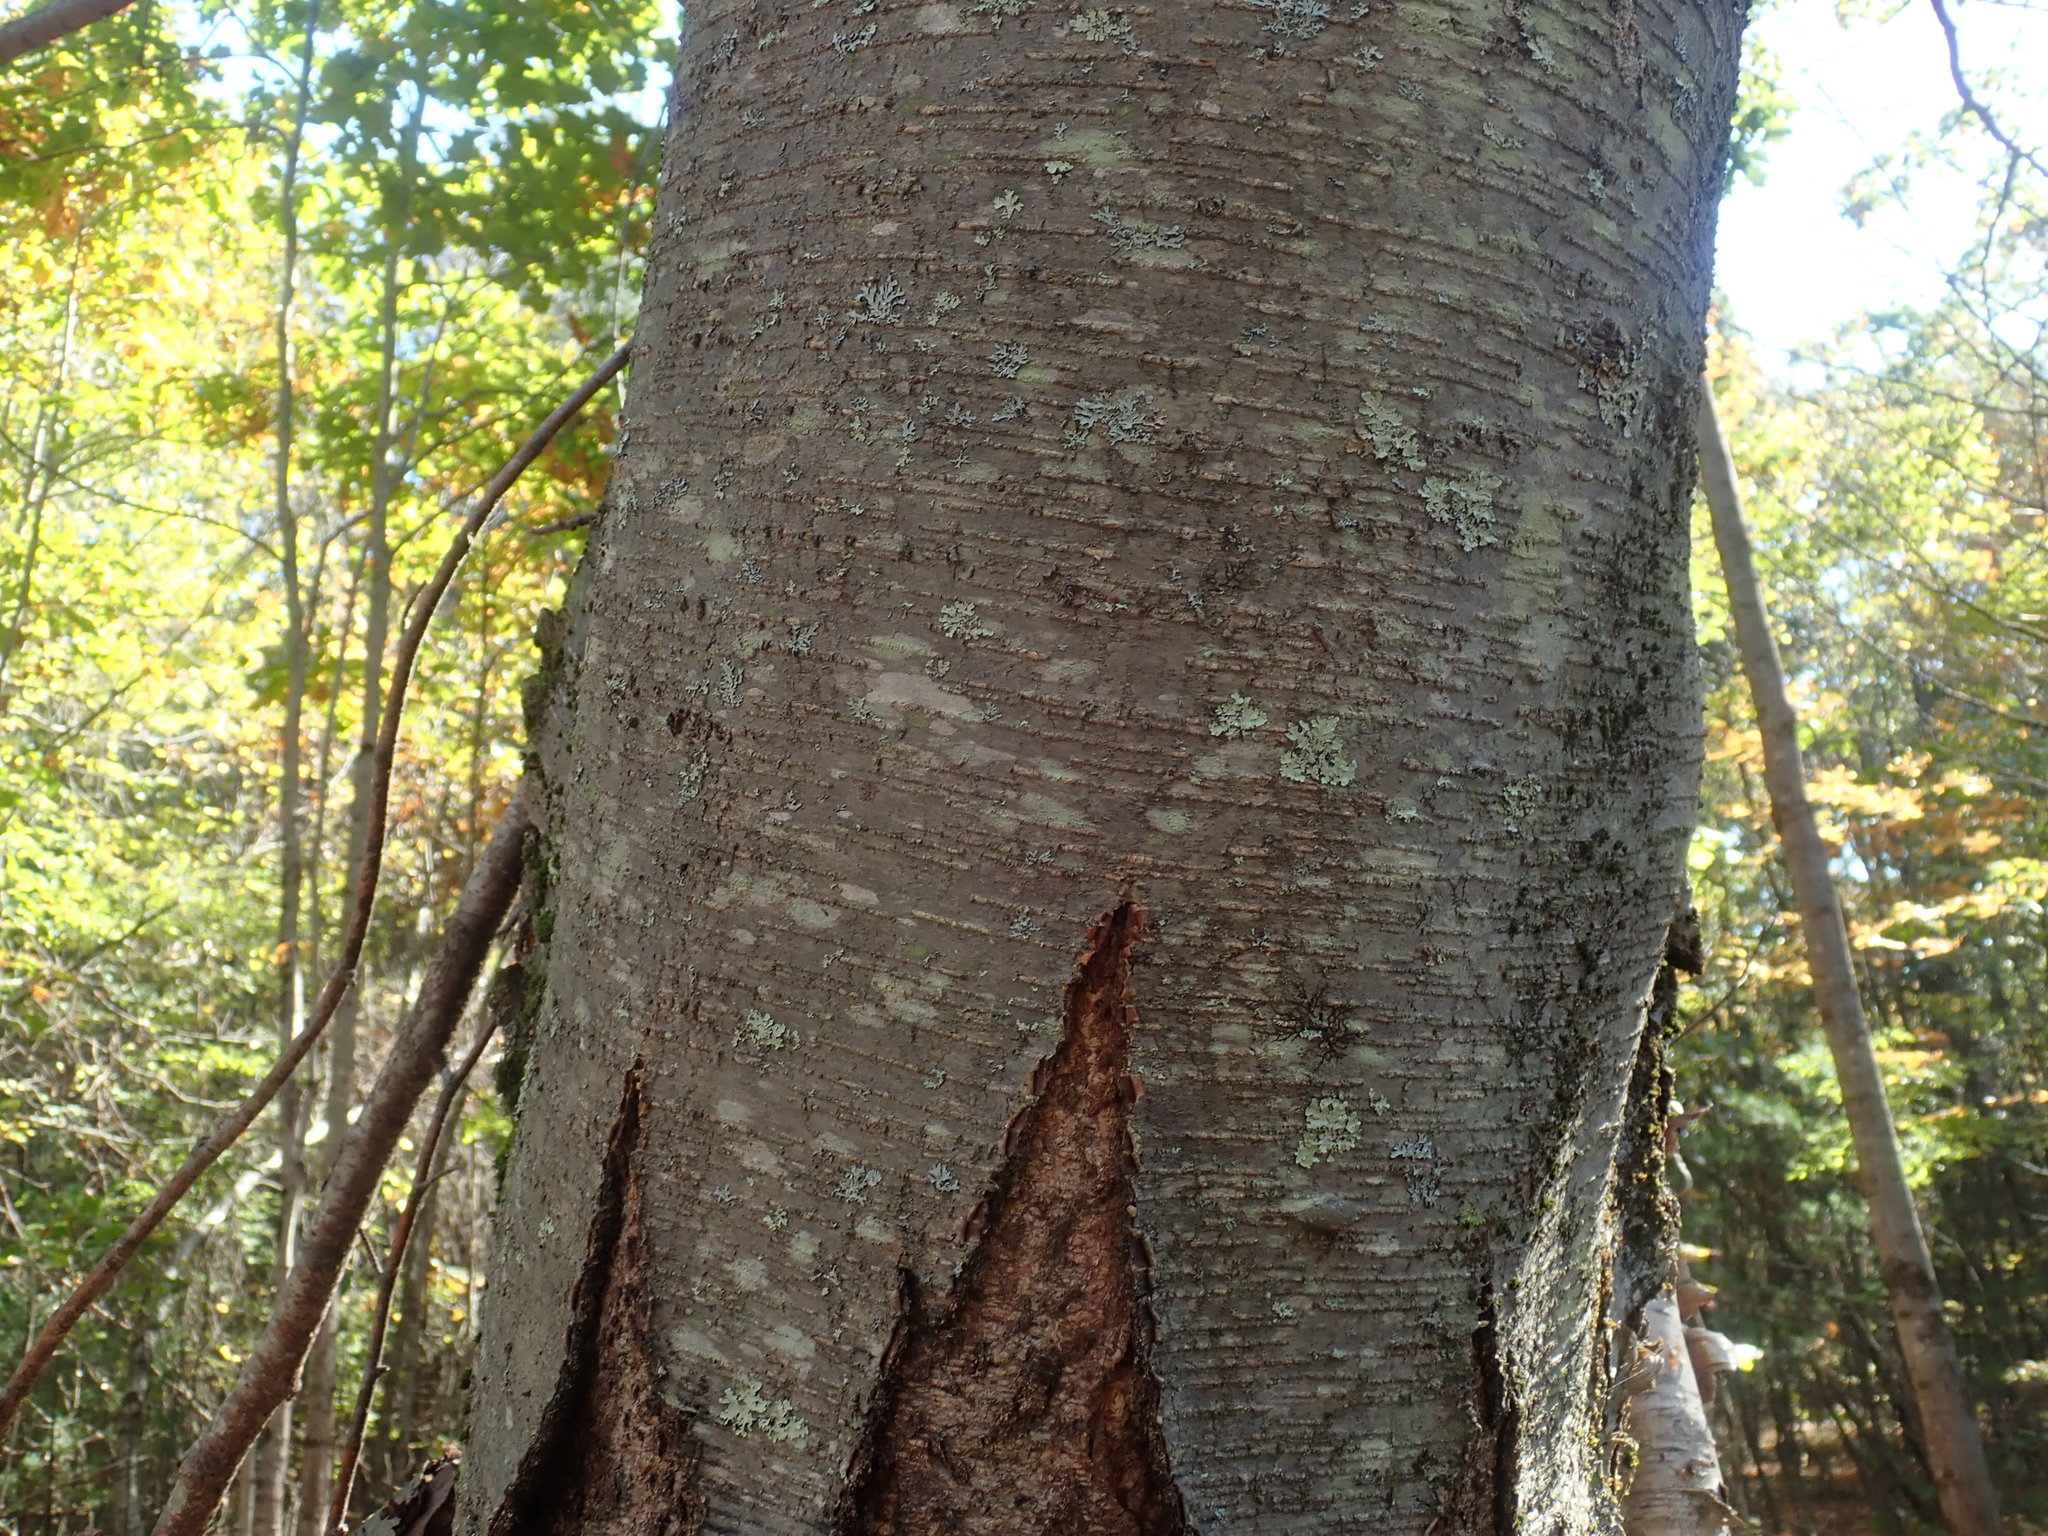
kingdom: Plantae
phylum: Tracheophyta
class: Magnoliopsida
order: Fagales
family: Betulaceae
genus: Betula
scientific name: Betula lenta
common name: Black birch
